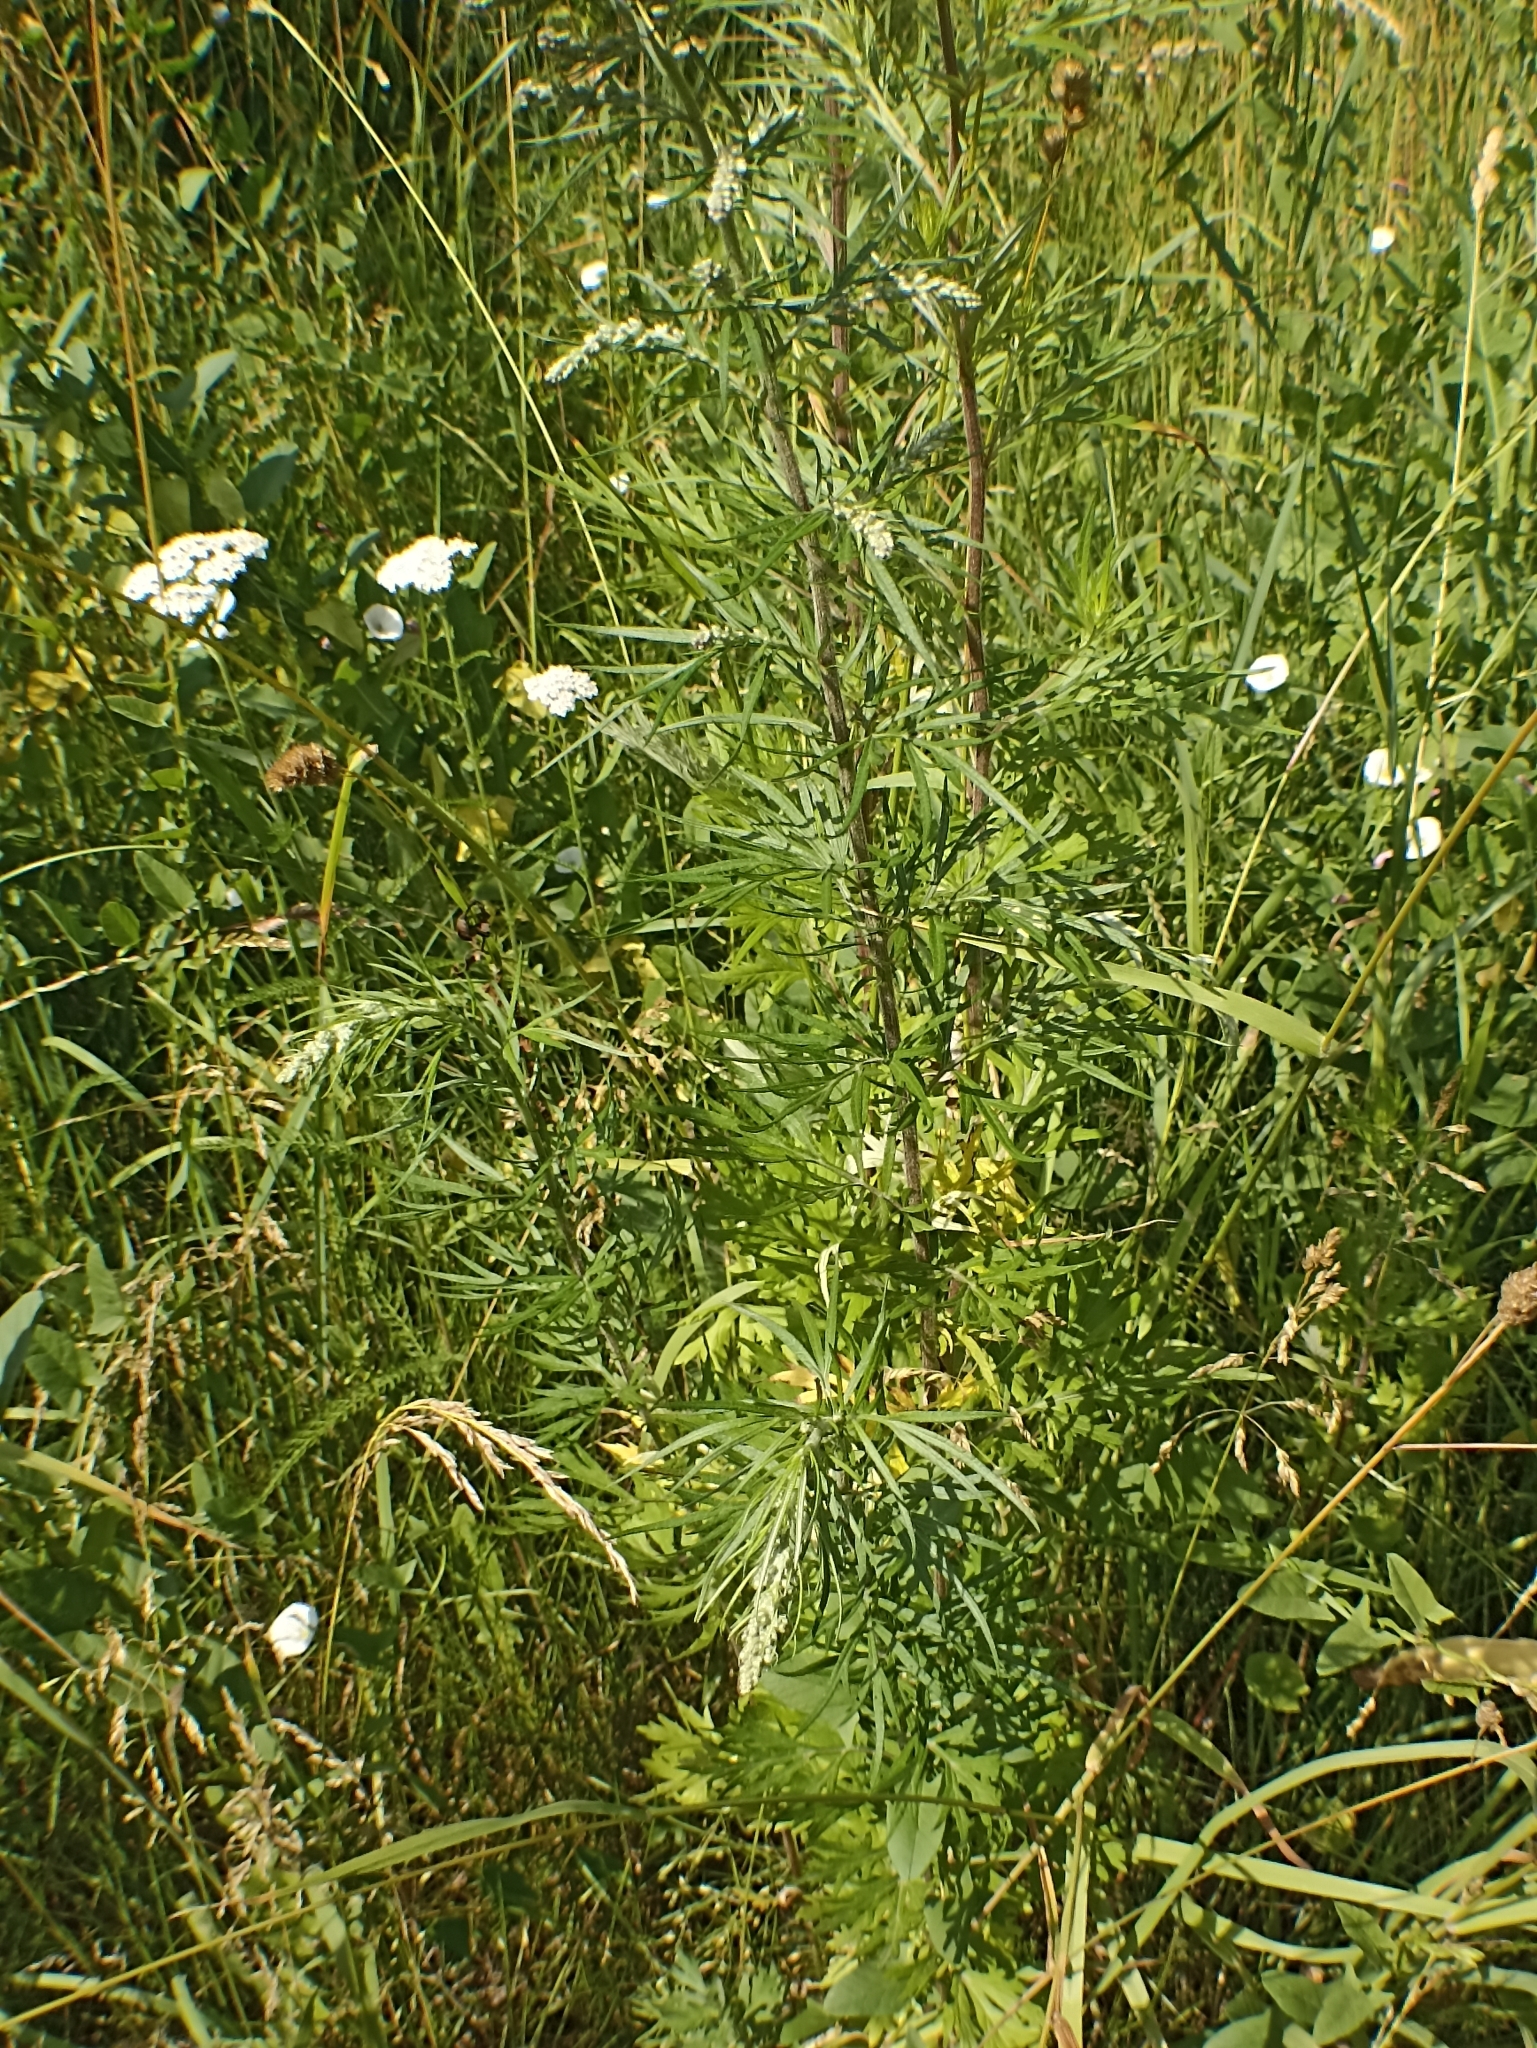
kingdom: Plantae
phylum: Tracheophyta
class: Magnoliopsida
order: Asterales
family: Asteraceae
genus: Artemisia
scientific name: Artemisia vulgaris
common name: Mugwort
